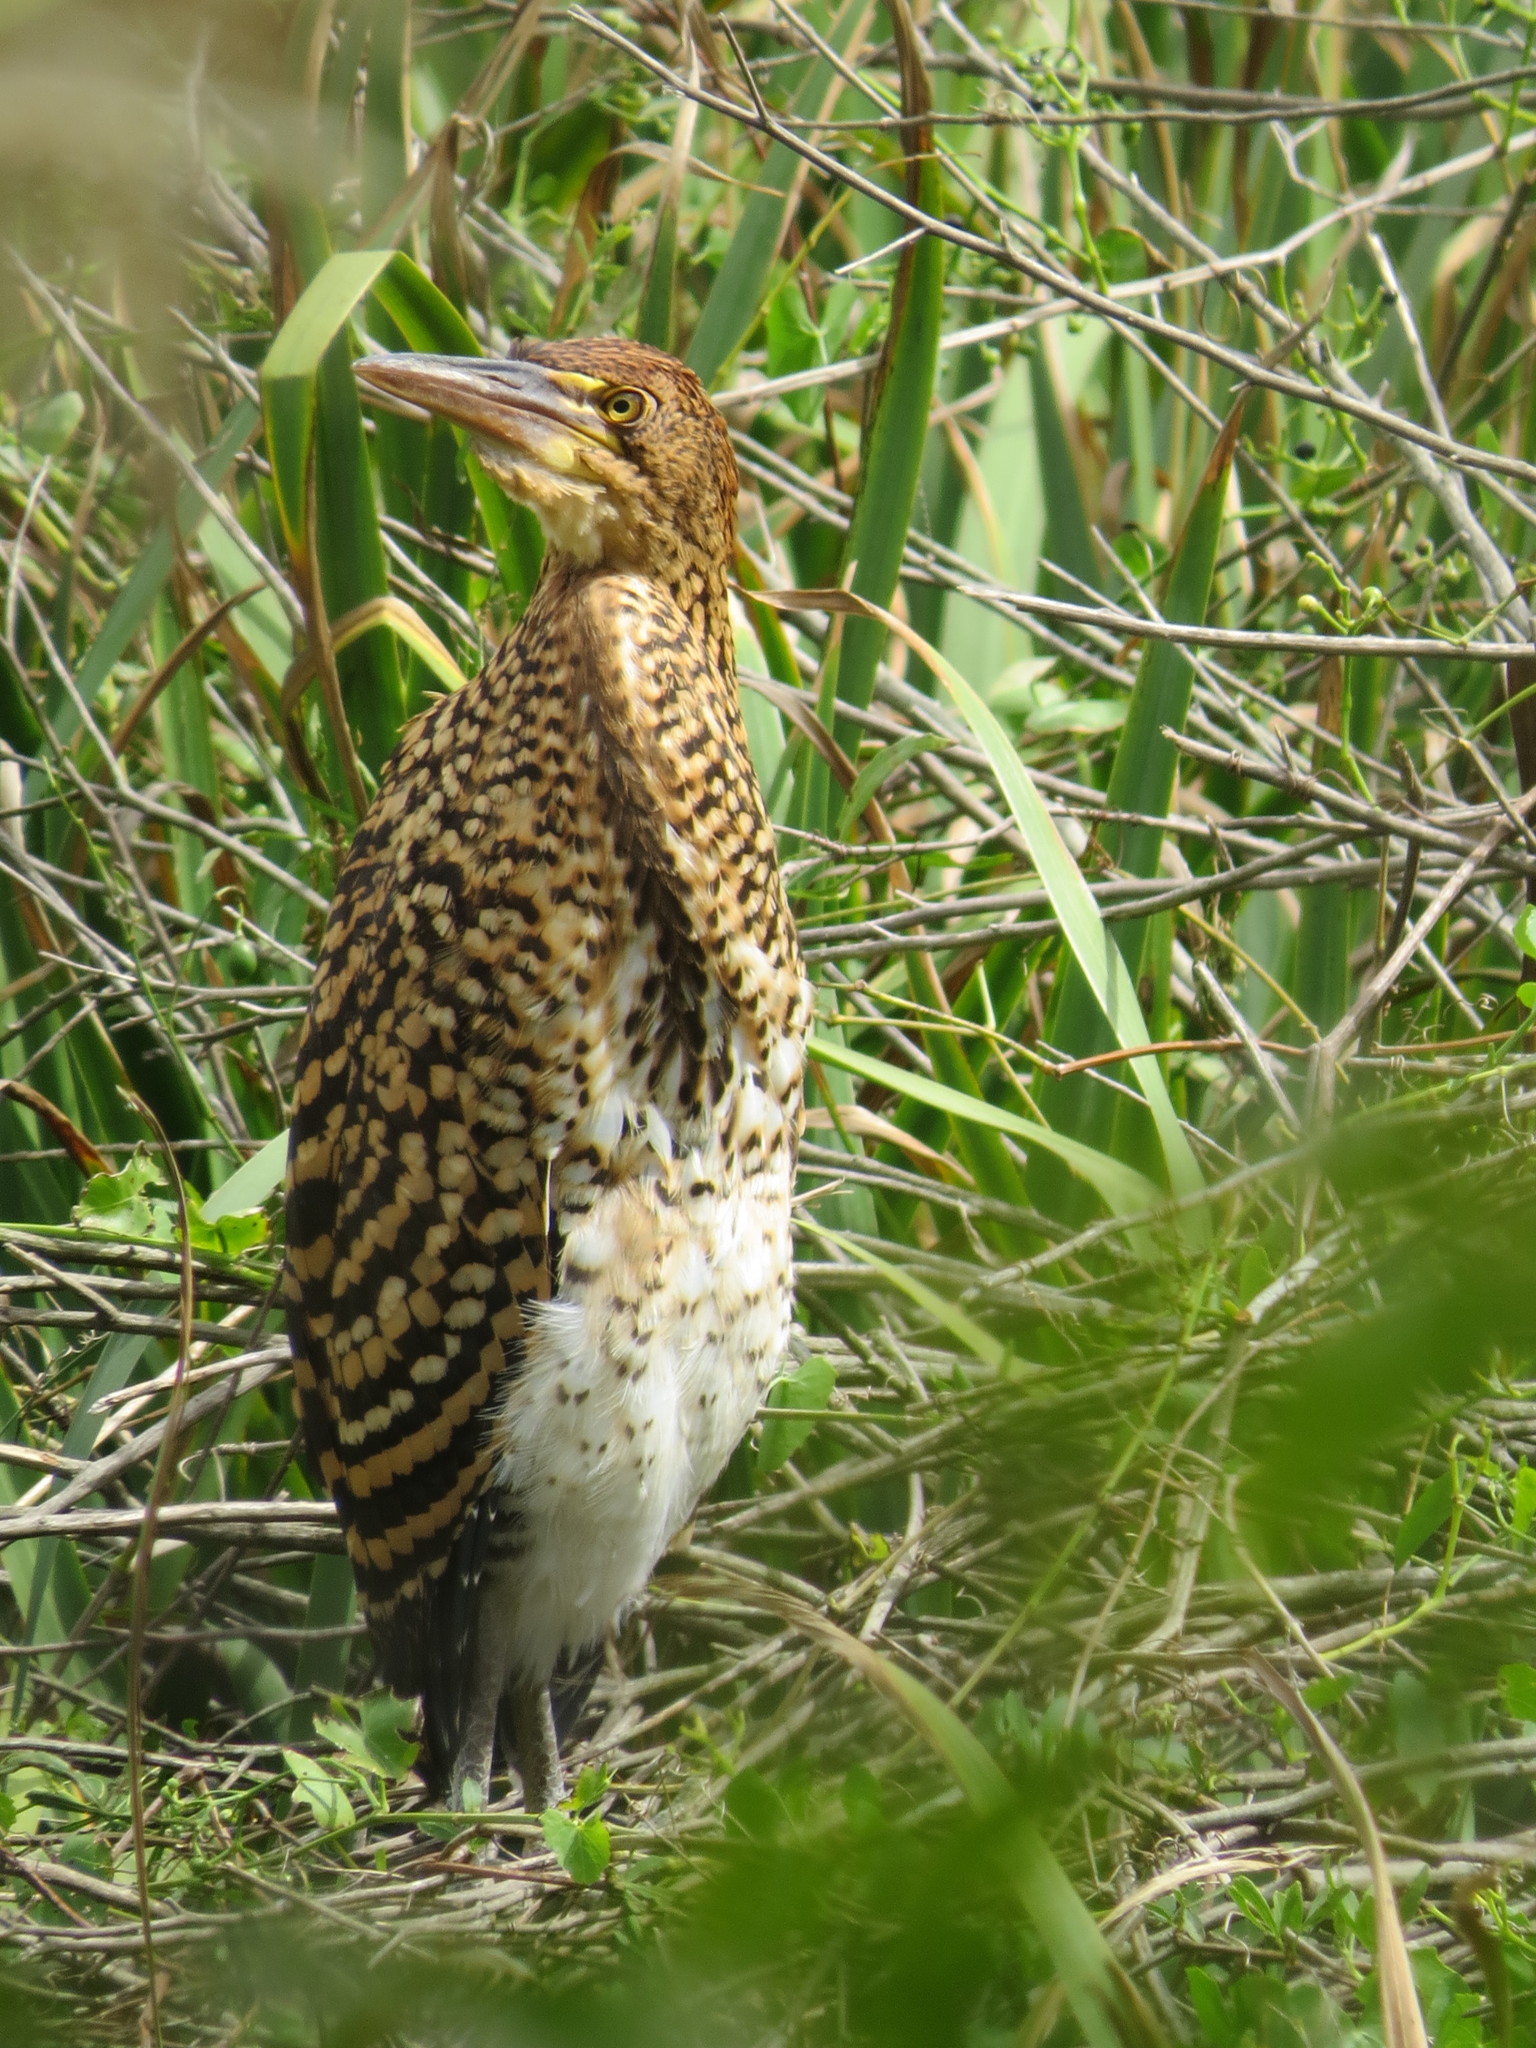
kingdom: Animalia
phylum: Chordata
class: Aves
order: Pelecaniformes
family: Ardeidae
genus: Tigrisoma
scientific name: Tigrisoma lineatum
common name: Rufescent tiger-heron
